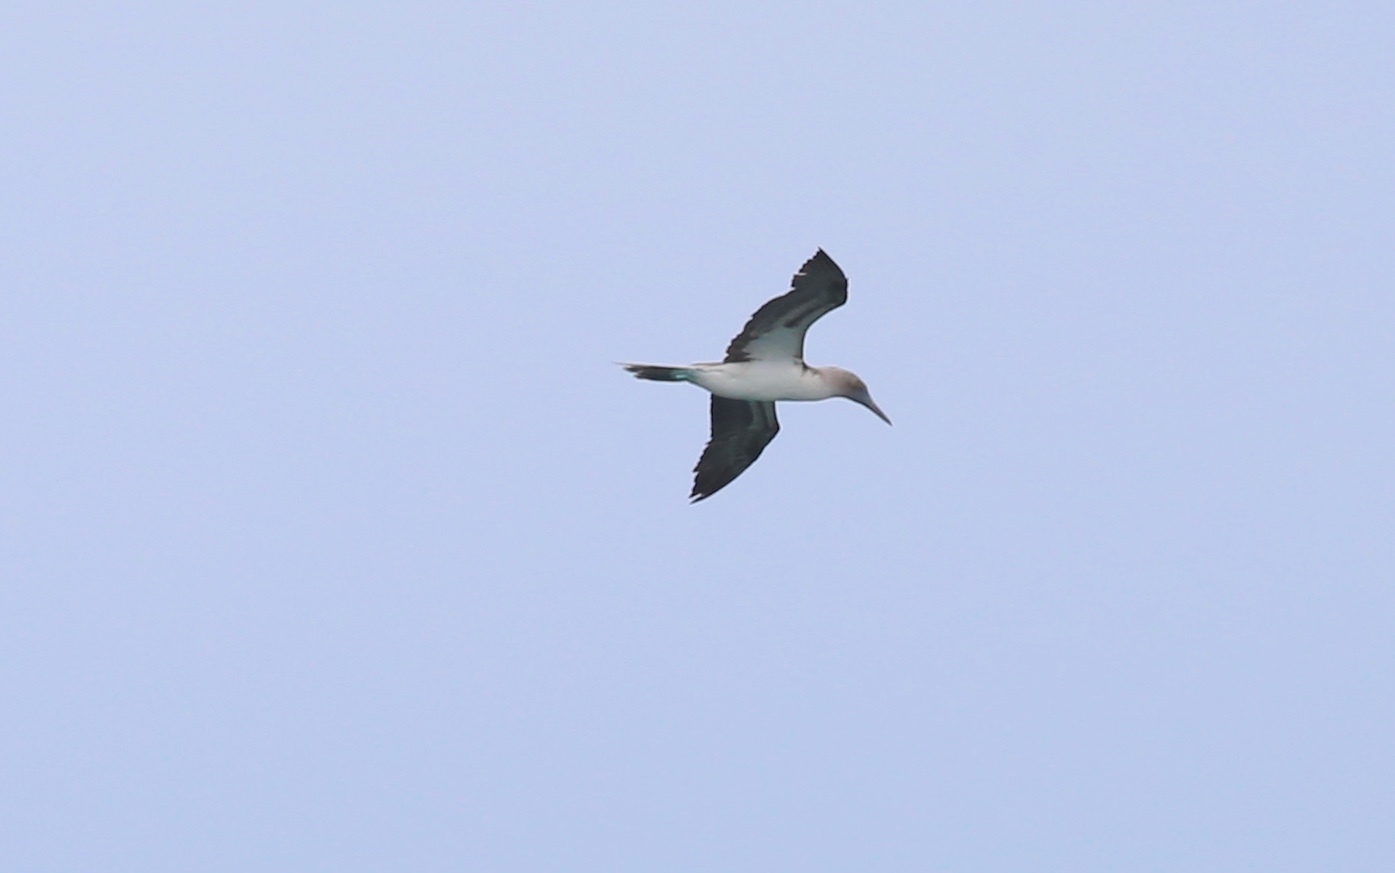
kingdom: Animalia
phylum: Chordata
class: Aves
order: Suliformes
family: Sulidae
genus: Sula
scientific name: Sula nebouxii
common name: Blue-footed booby
